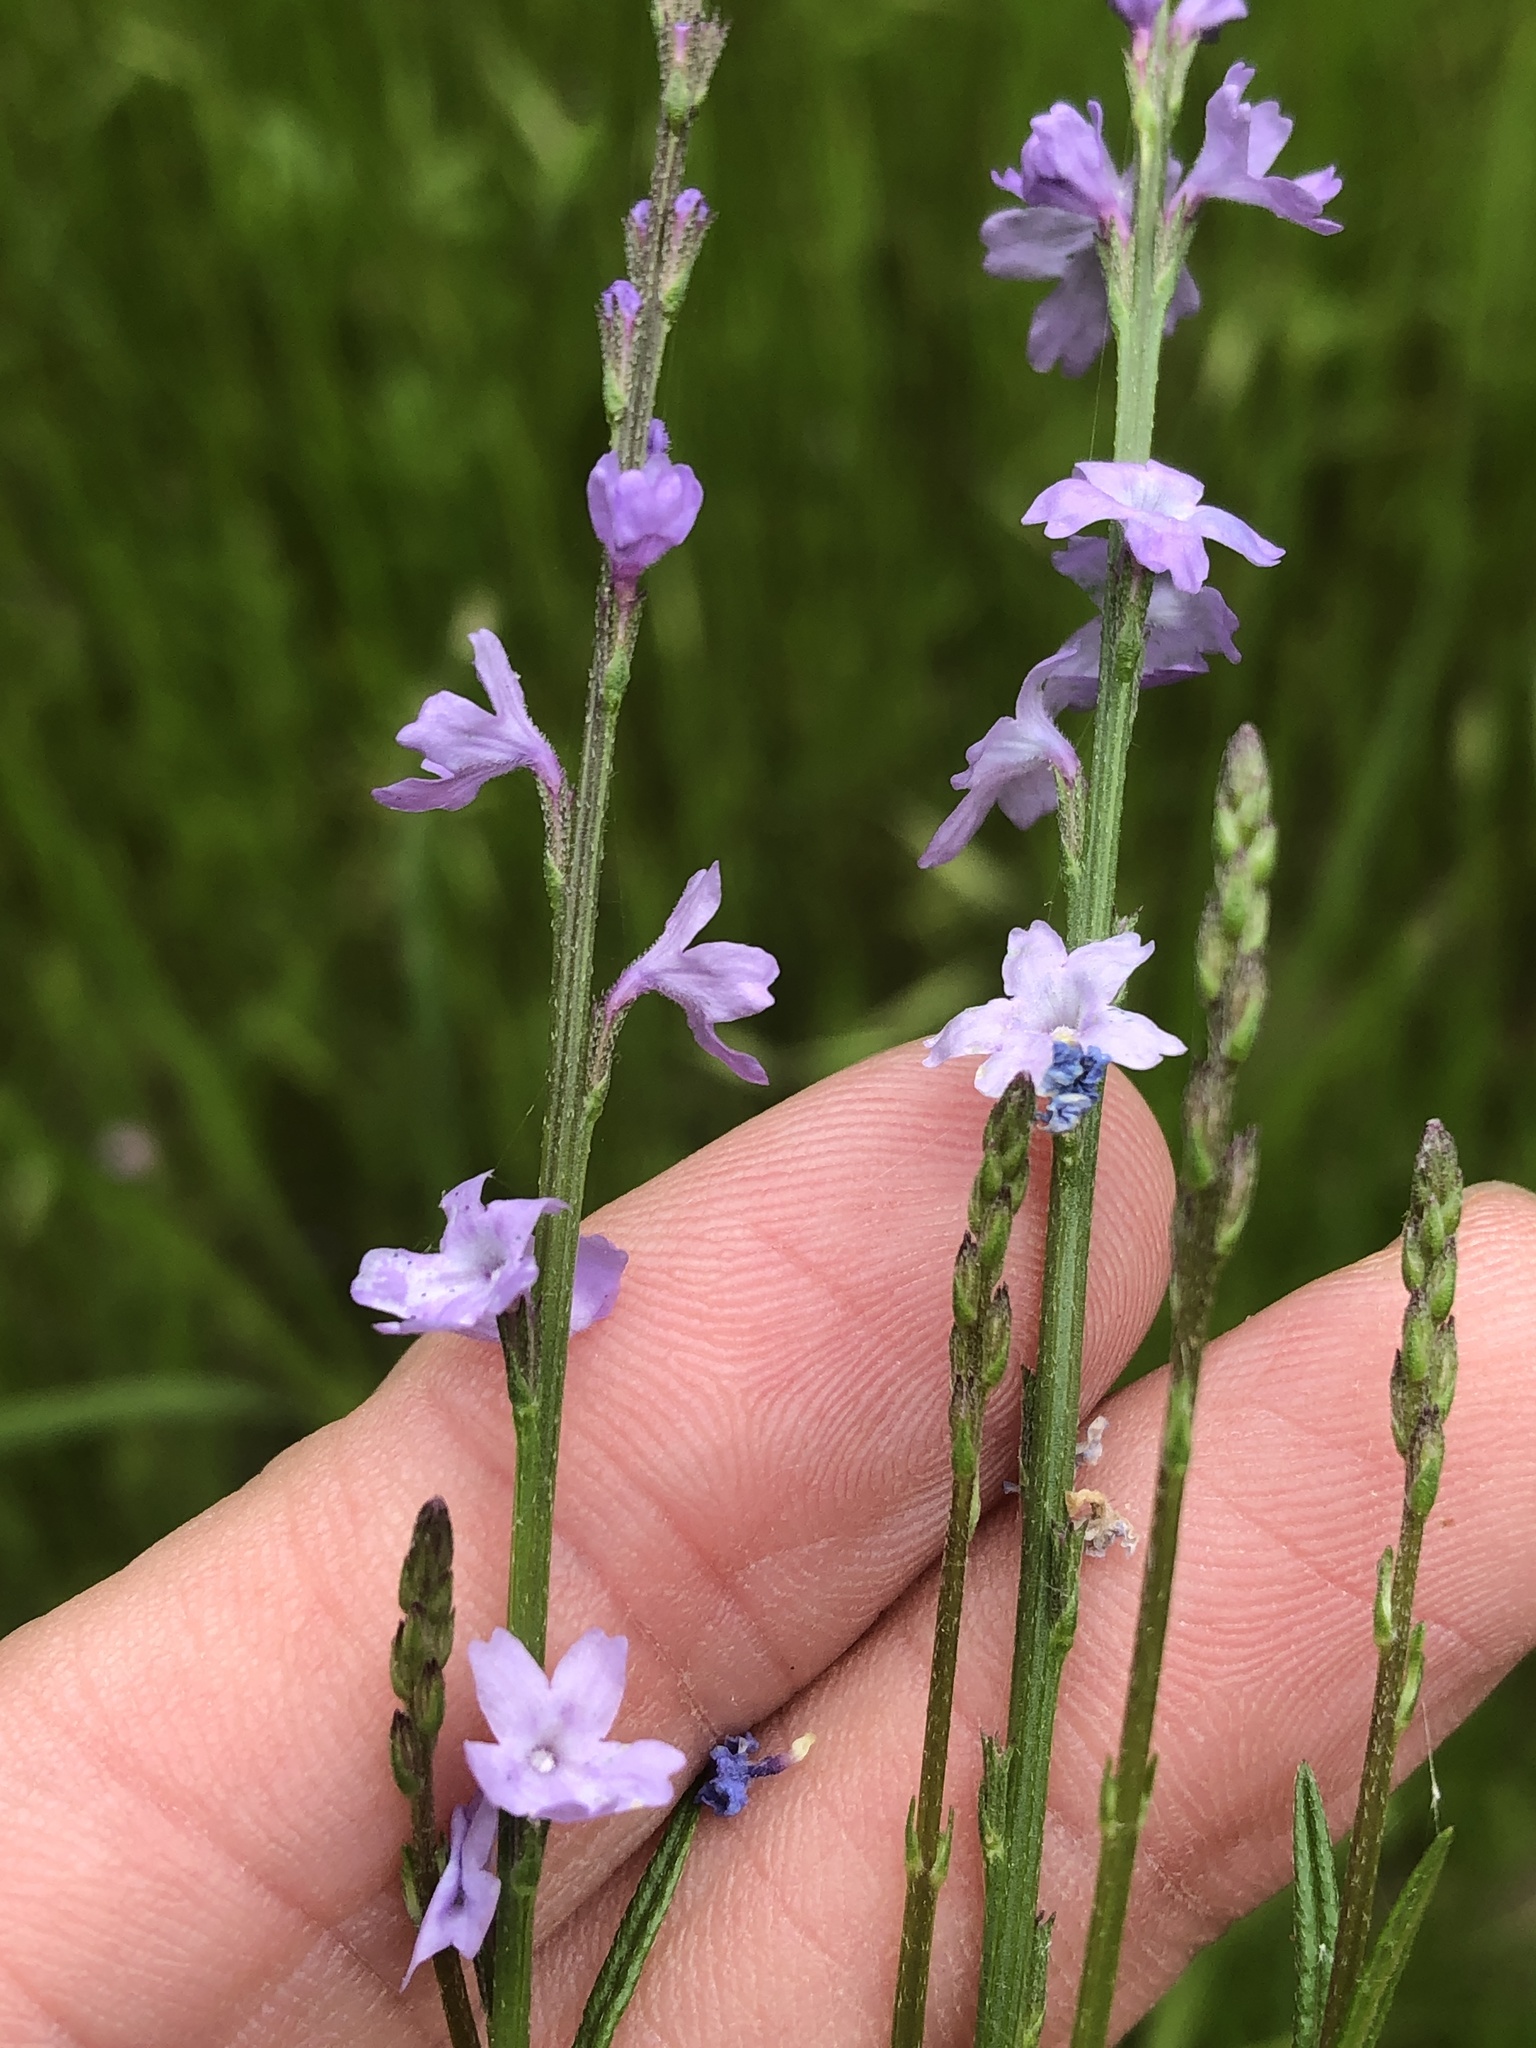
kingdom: Plantae
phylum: Tracheophyta
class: Magnoliopsida
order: Lamiales
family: Verbenaceae
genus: Verbena
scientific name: Verbena halei
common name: Texas vervain
